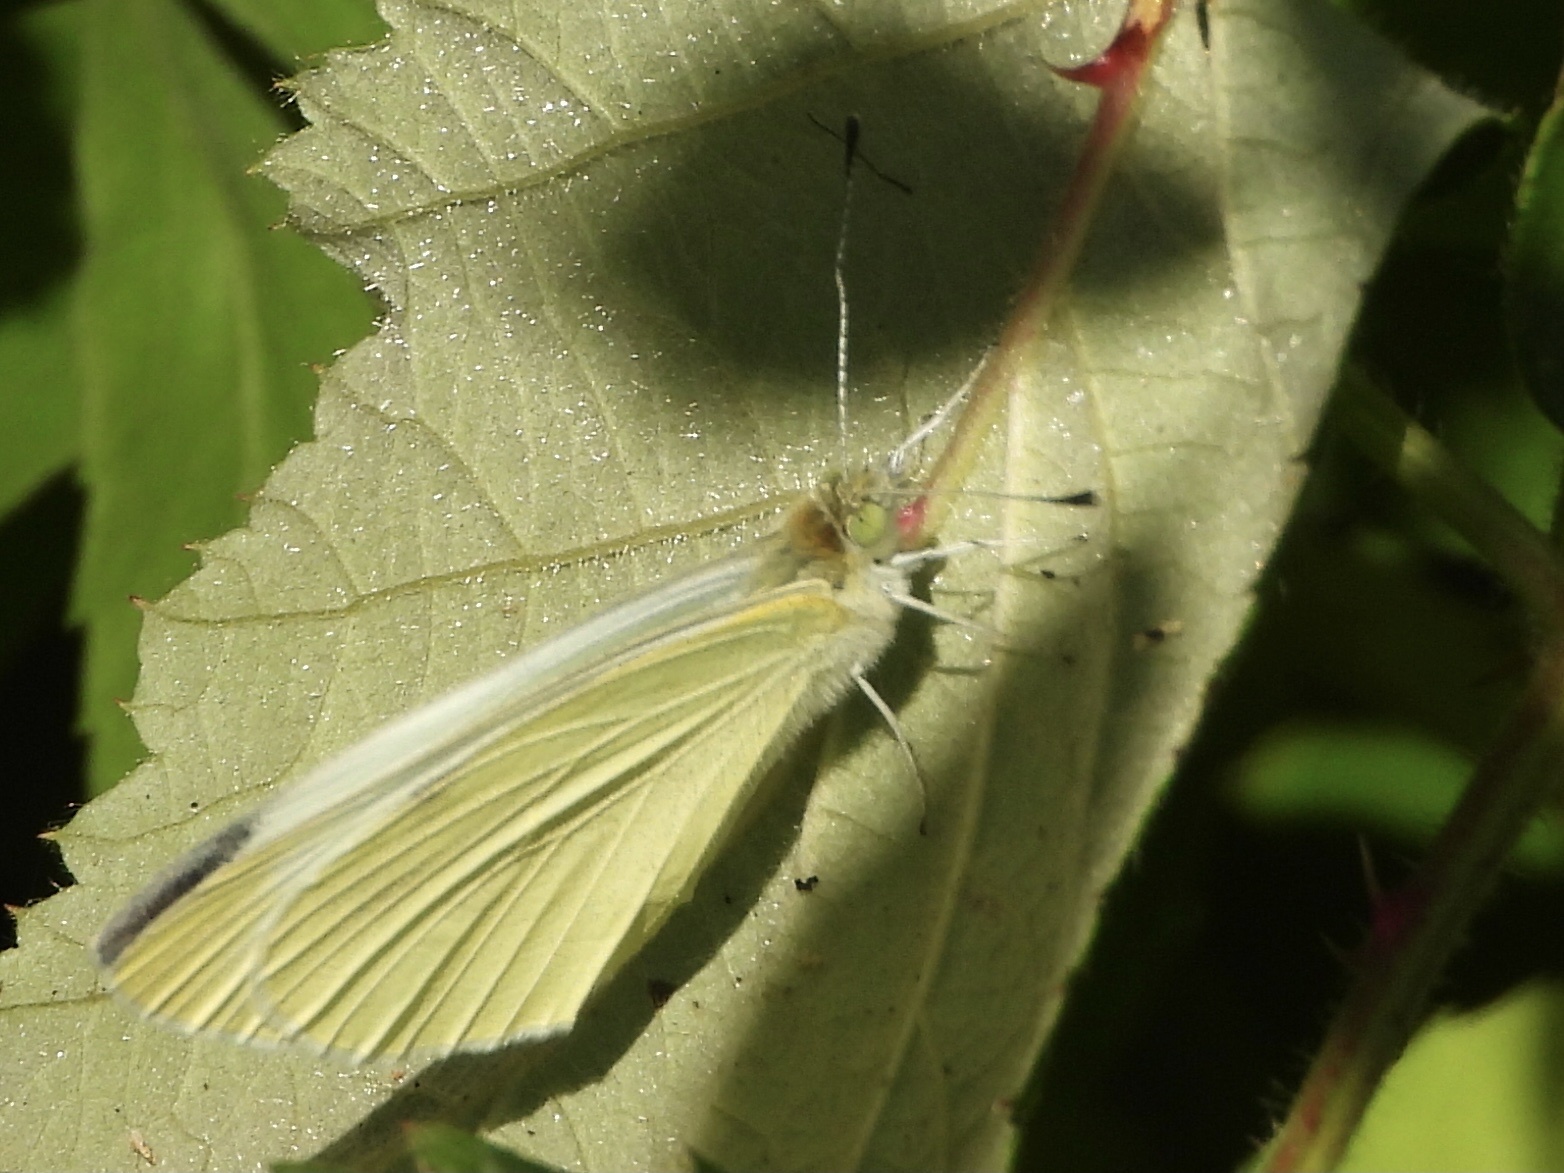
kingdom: Animalia
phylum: Arthropoda
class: Insecta
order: Lepidoptera
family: Pieridae
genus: Pieris
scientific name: Pieris rapae
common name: Small white
